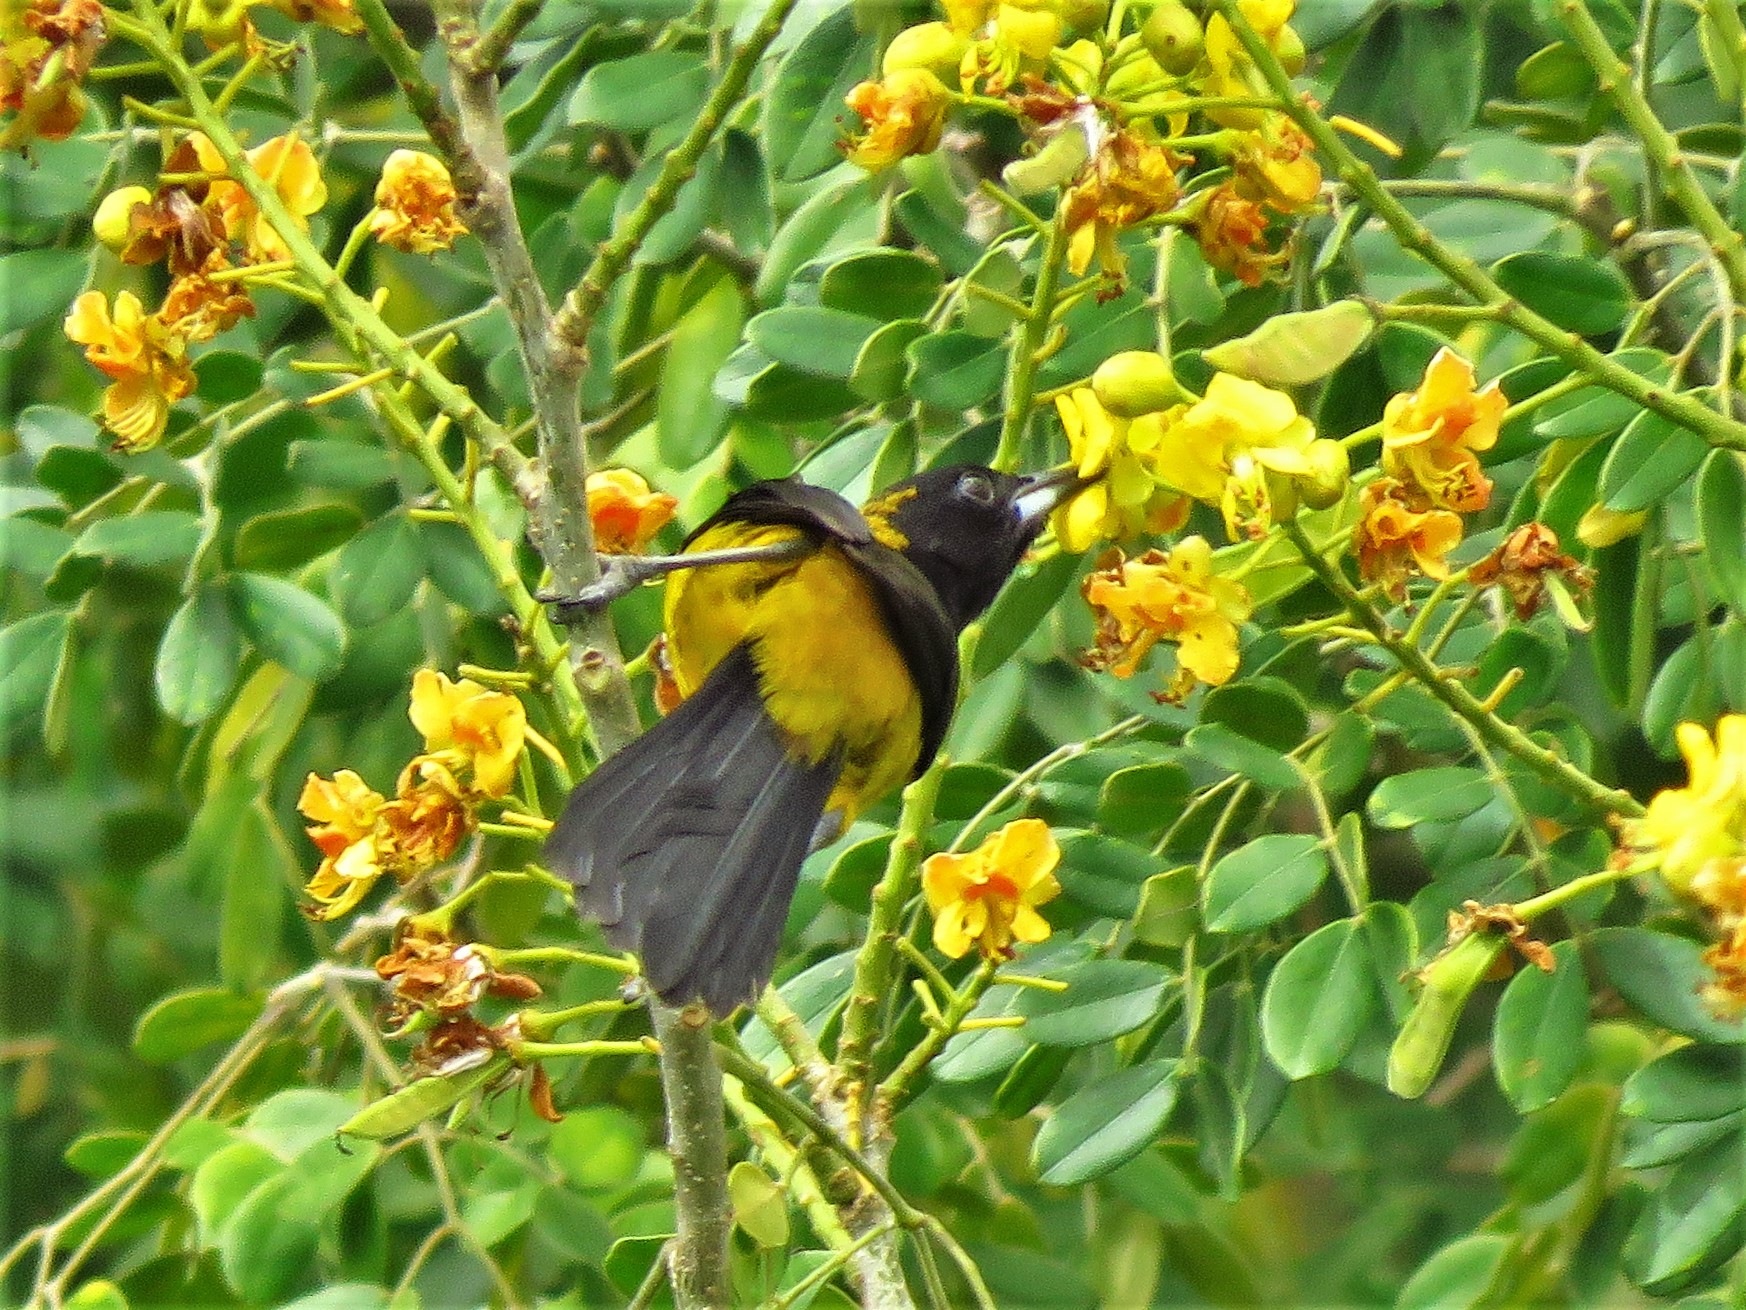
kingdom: Animalia
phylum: Chordata
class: Aves
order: Passeriformes
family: Icteridae
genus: Icterus
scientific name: Icterus prosthemelas
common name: Black-cowled oriole
